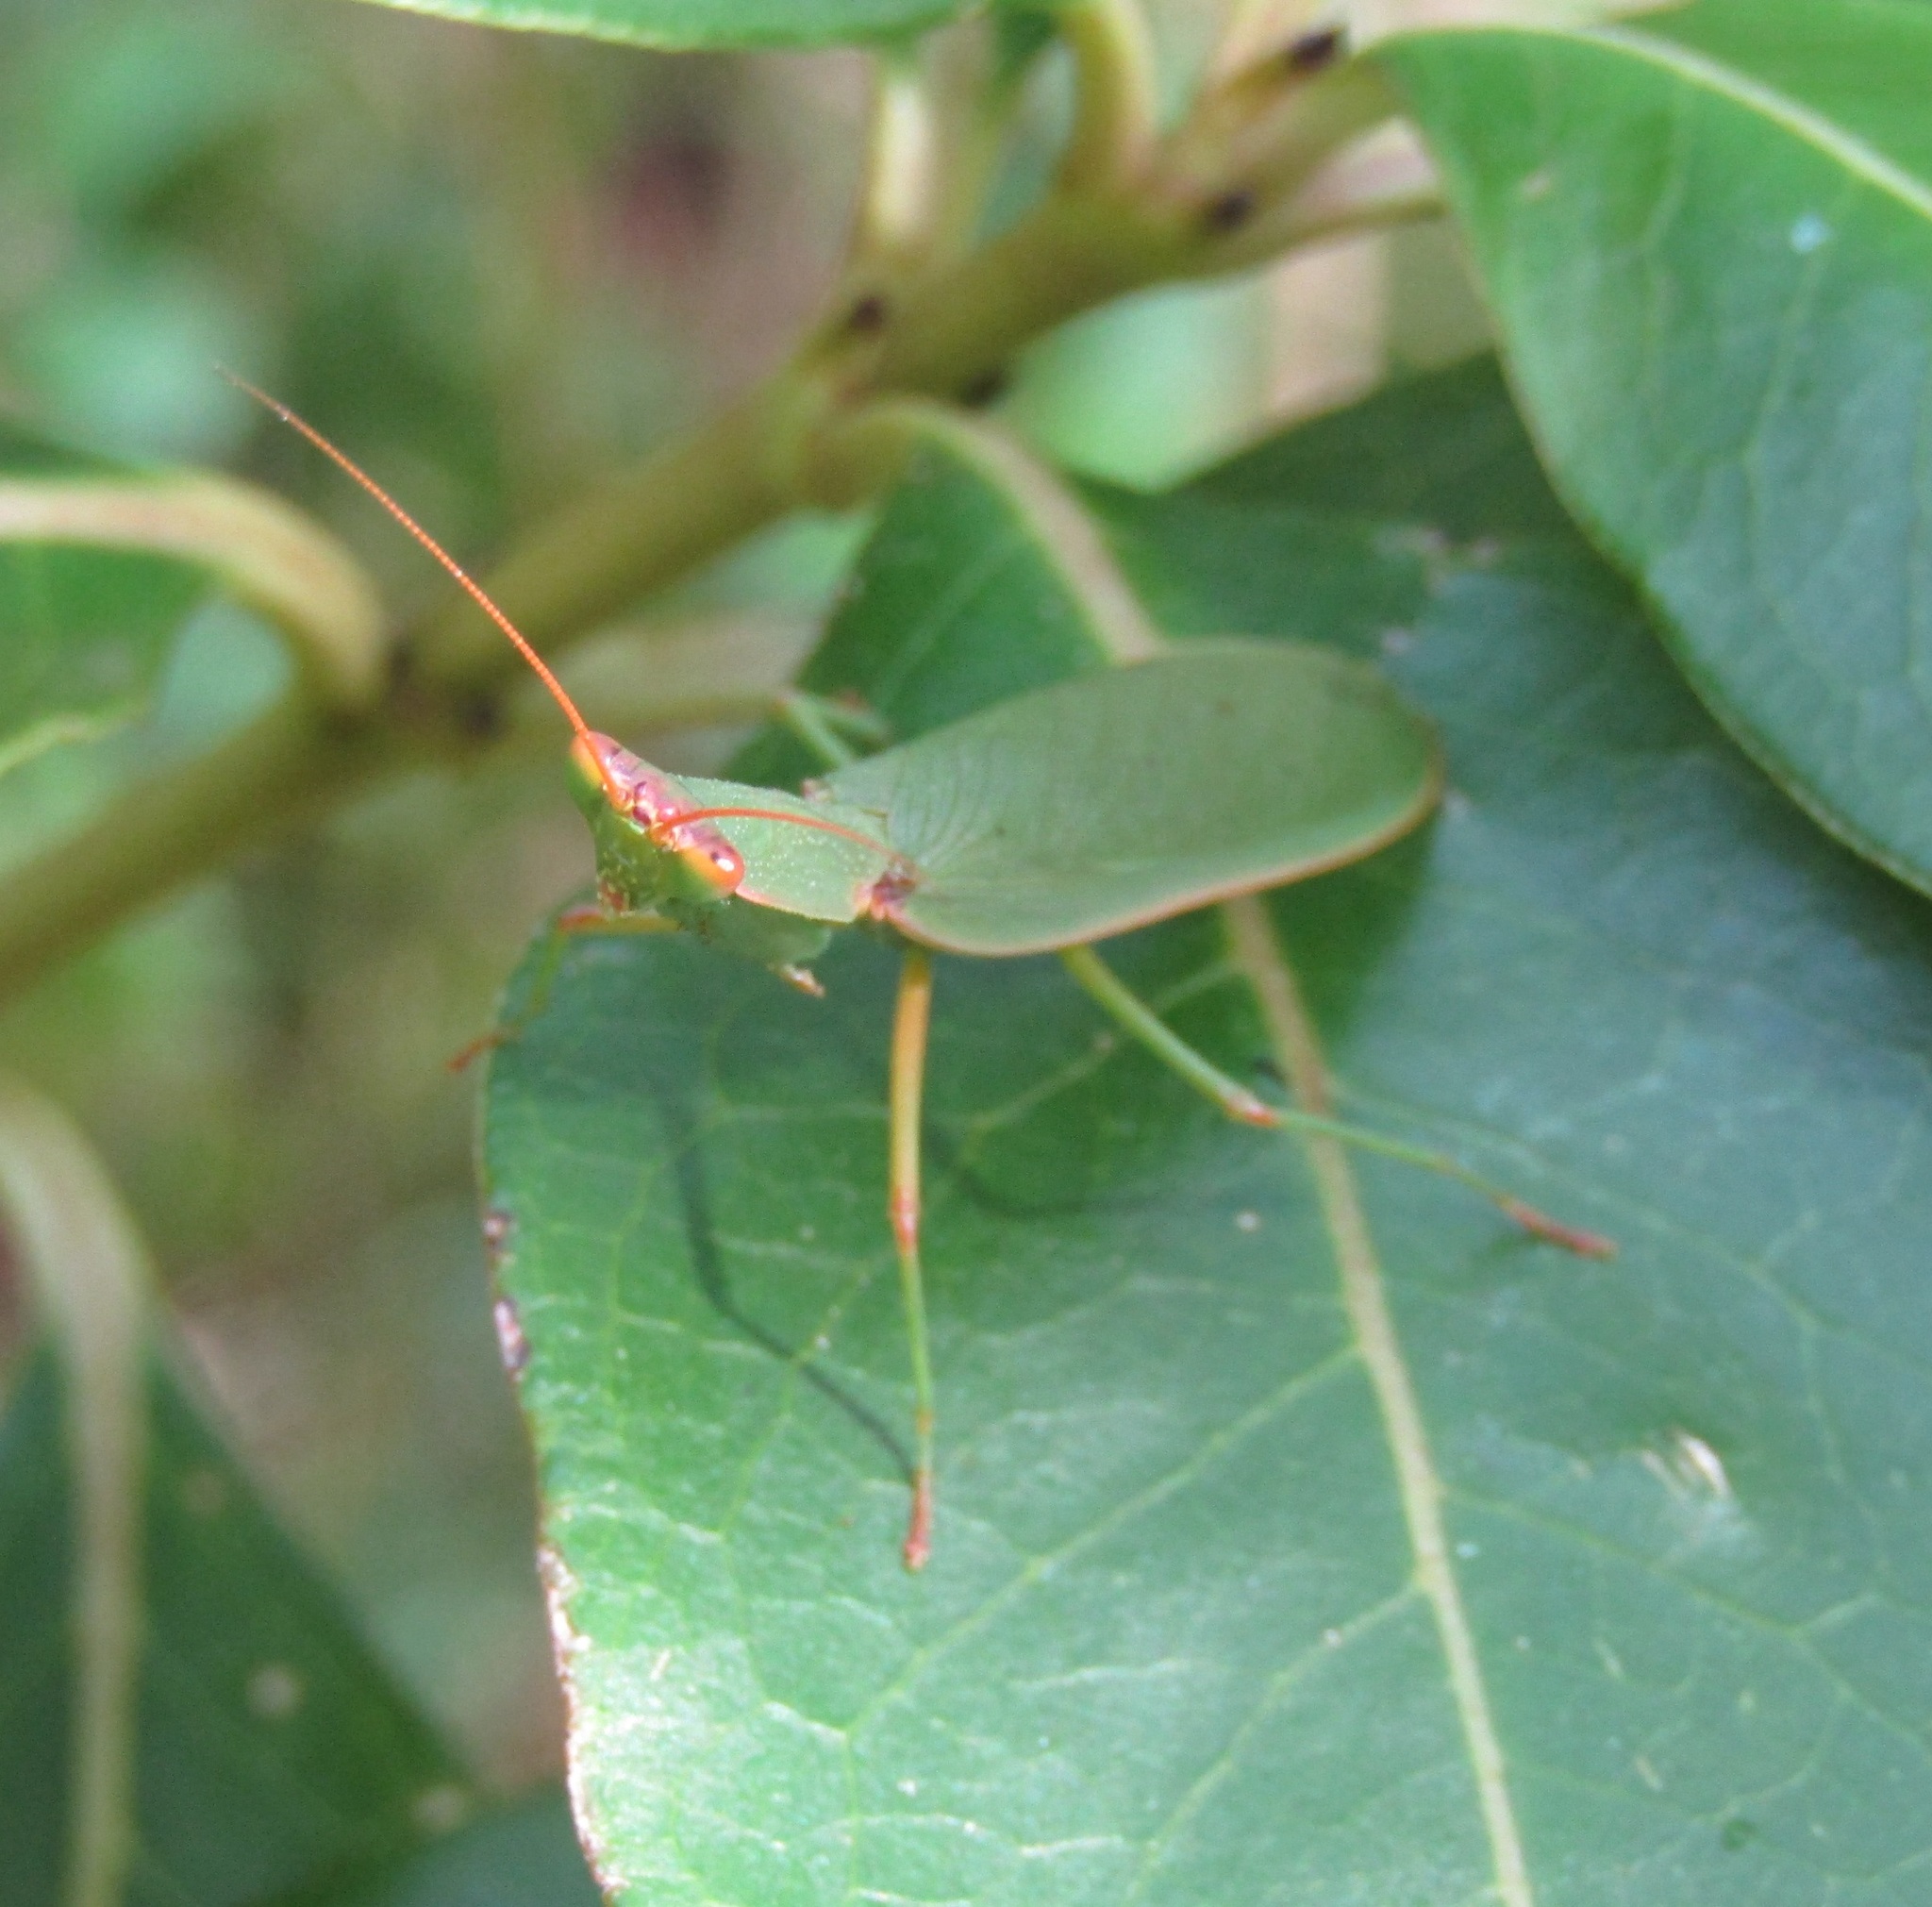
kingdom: Animalia
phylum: Arthropoda
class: Insecta
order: Mantodea
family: Mantidae
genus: Orthodera
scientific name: Orthodera novaezealandiae
